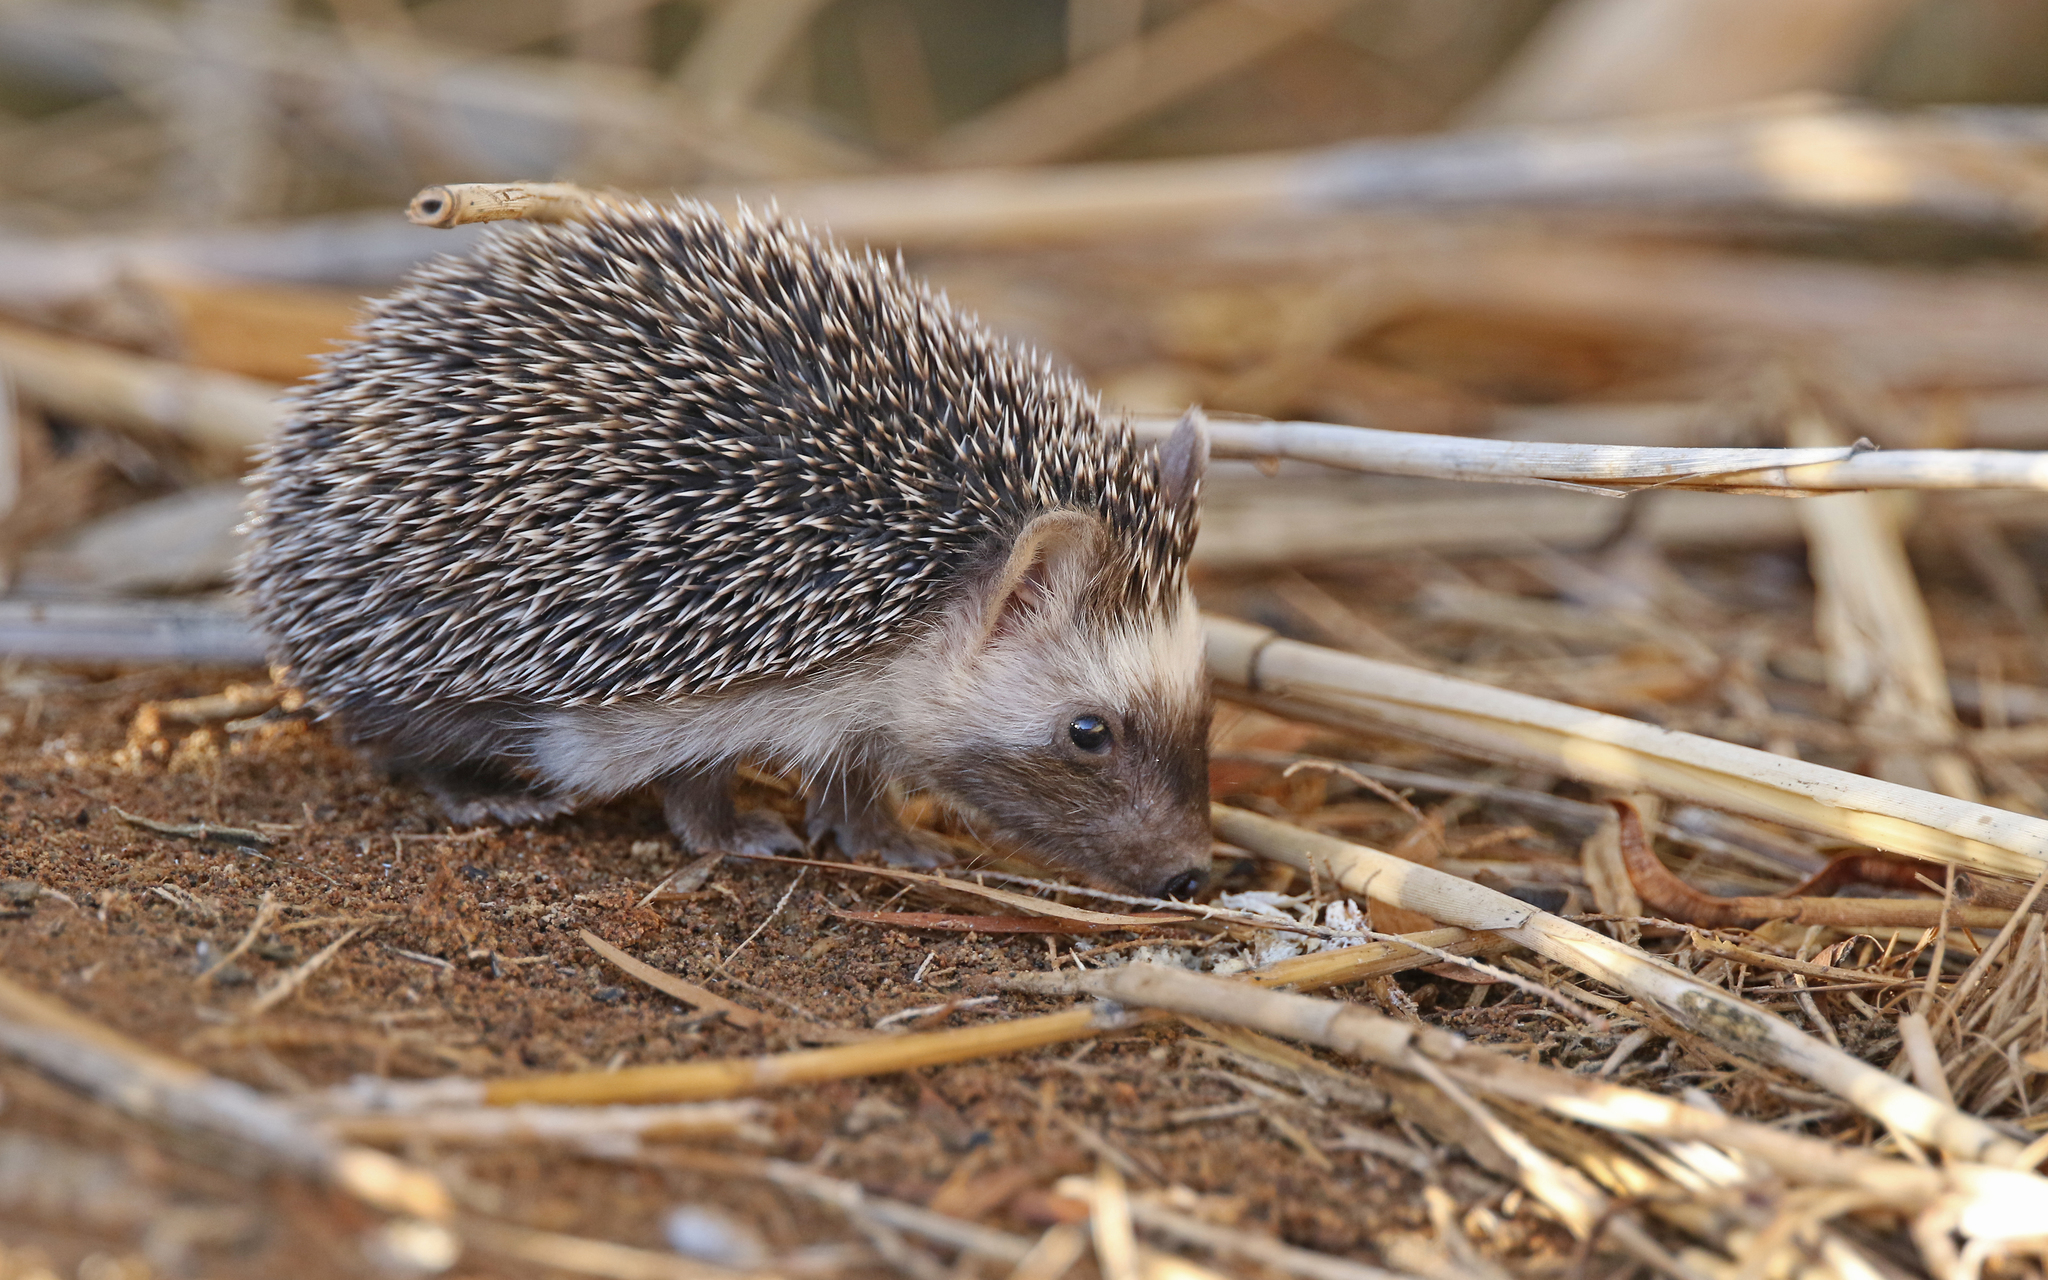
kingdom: Animalia
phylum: Chordata
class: Mammalia
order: Erinaceomorpha
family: Erinaceidae
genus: Atelerix
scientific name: Atelerix algirus
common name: North african hedgehog
